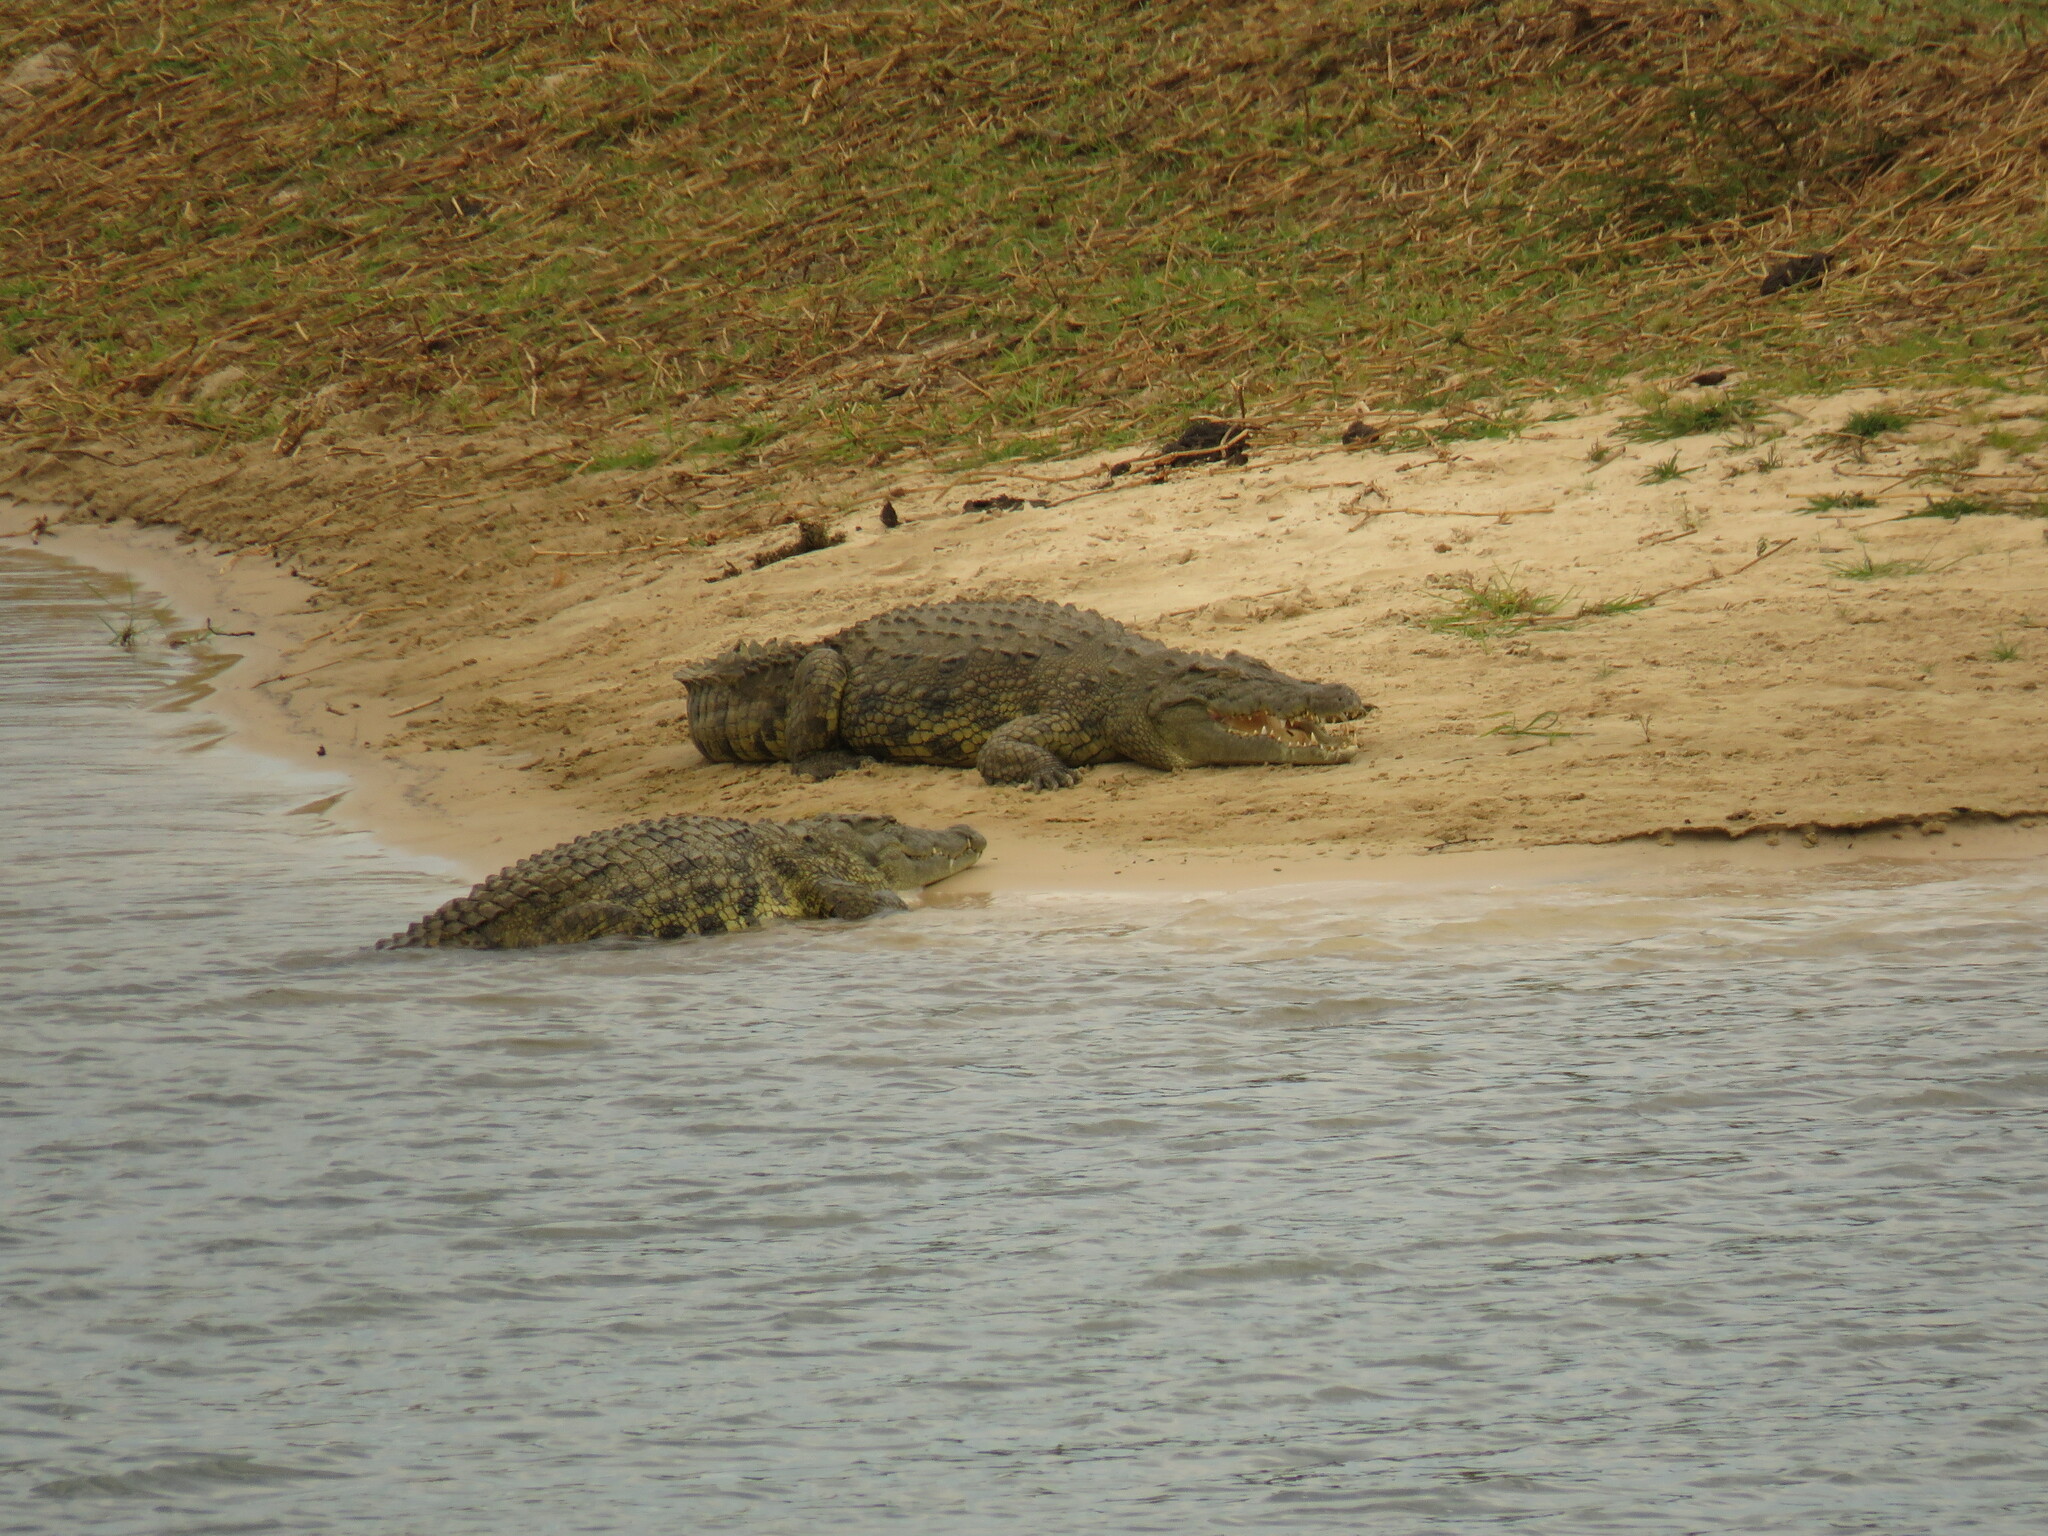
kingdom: Animalia
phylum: Chordata
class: Crocodylia
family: Crocodylidae
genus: Crocodylus
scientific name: Crocodylus niloticus
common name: Nile crocodile
